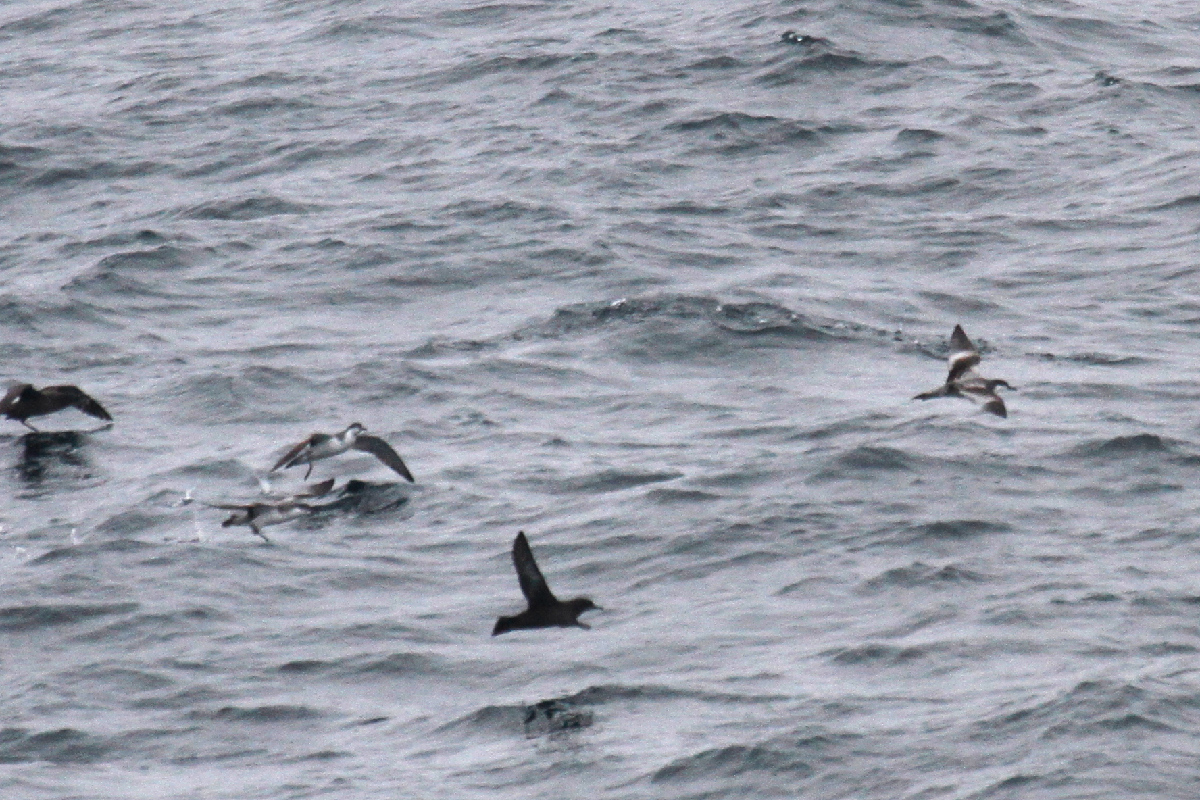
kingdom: Animalia
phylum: Chordata
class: Aves
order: Procellariiformes
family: Procellariidae
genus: Puffinus
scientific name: Puffinus bulleri
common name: Buller's shearwater
